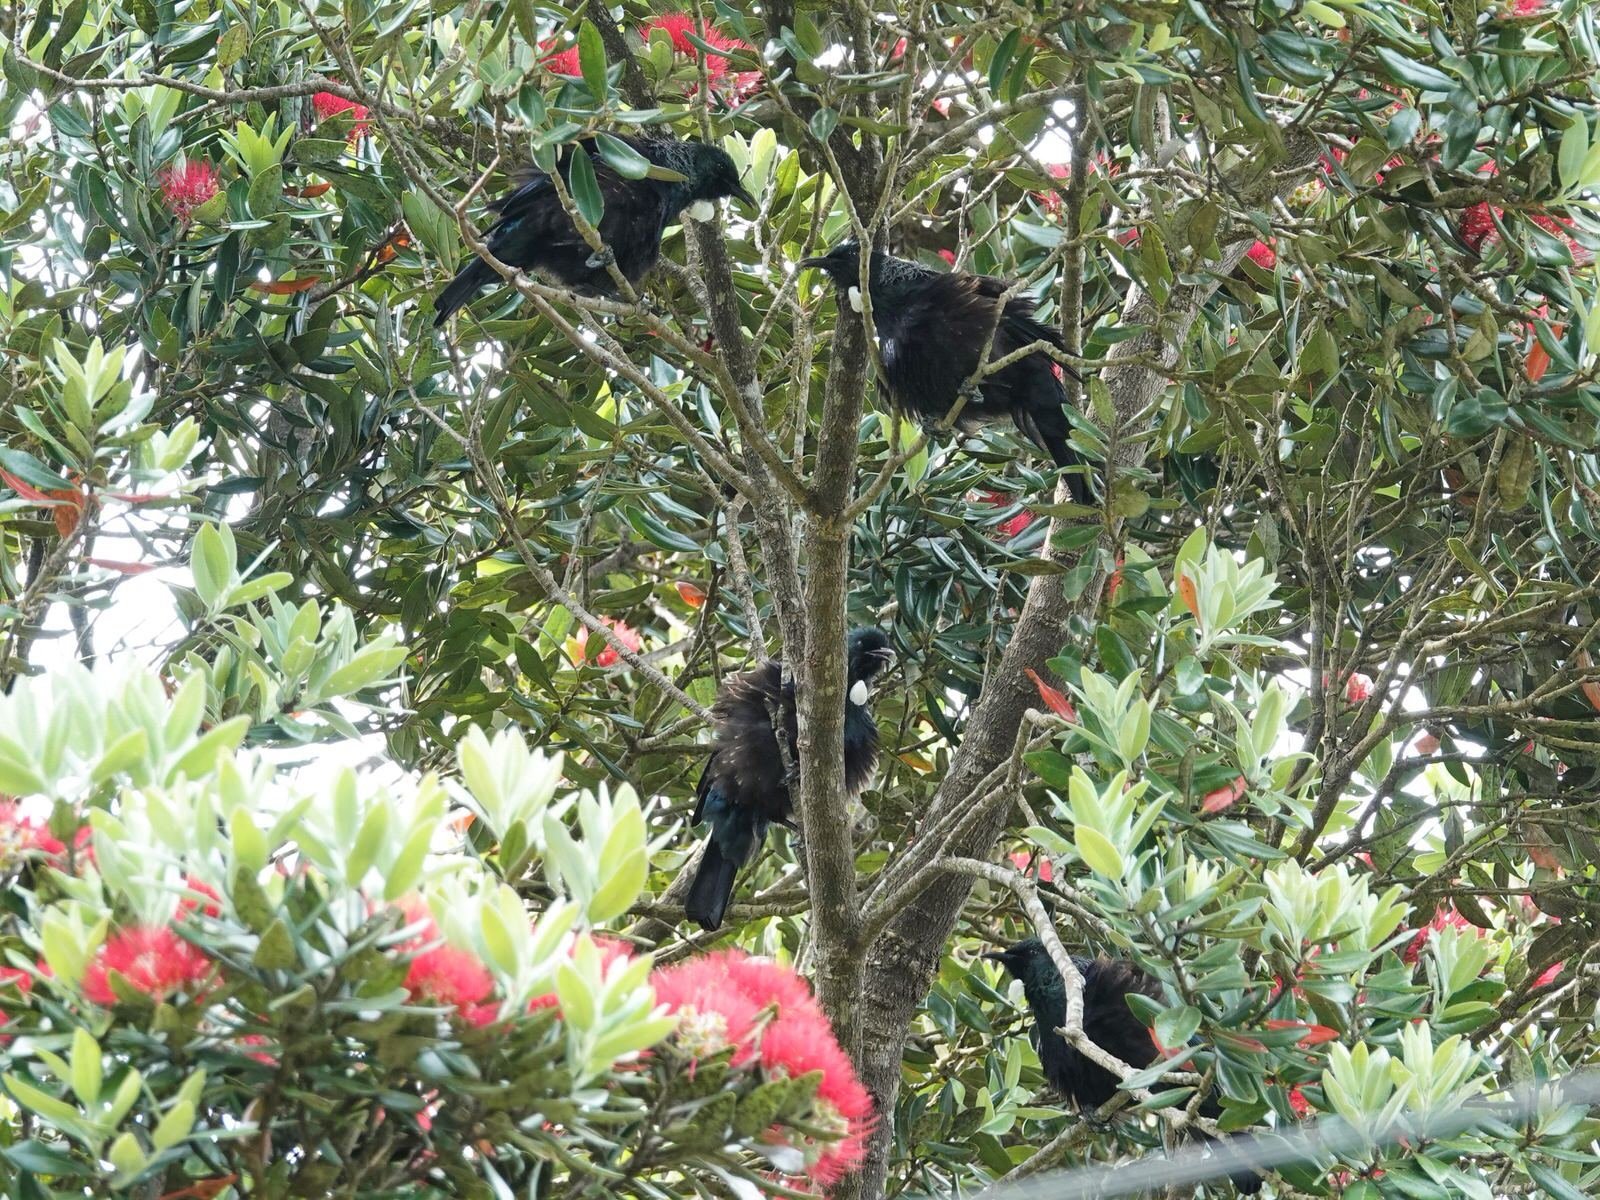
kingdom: Animalia
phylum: Chordata
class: Aves
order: Passeriformes
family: Meliphagidae
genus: Prosthemadera
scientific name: Prosthemadera novaeseelandiae
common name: Tui
